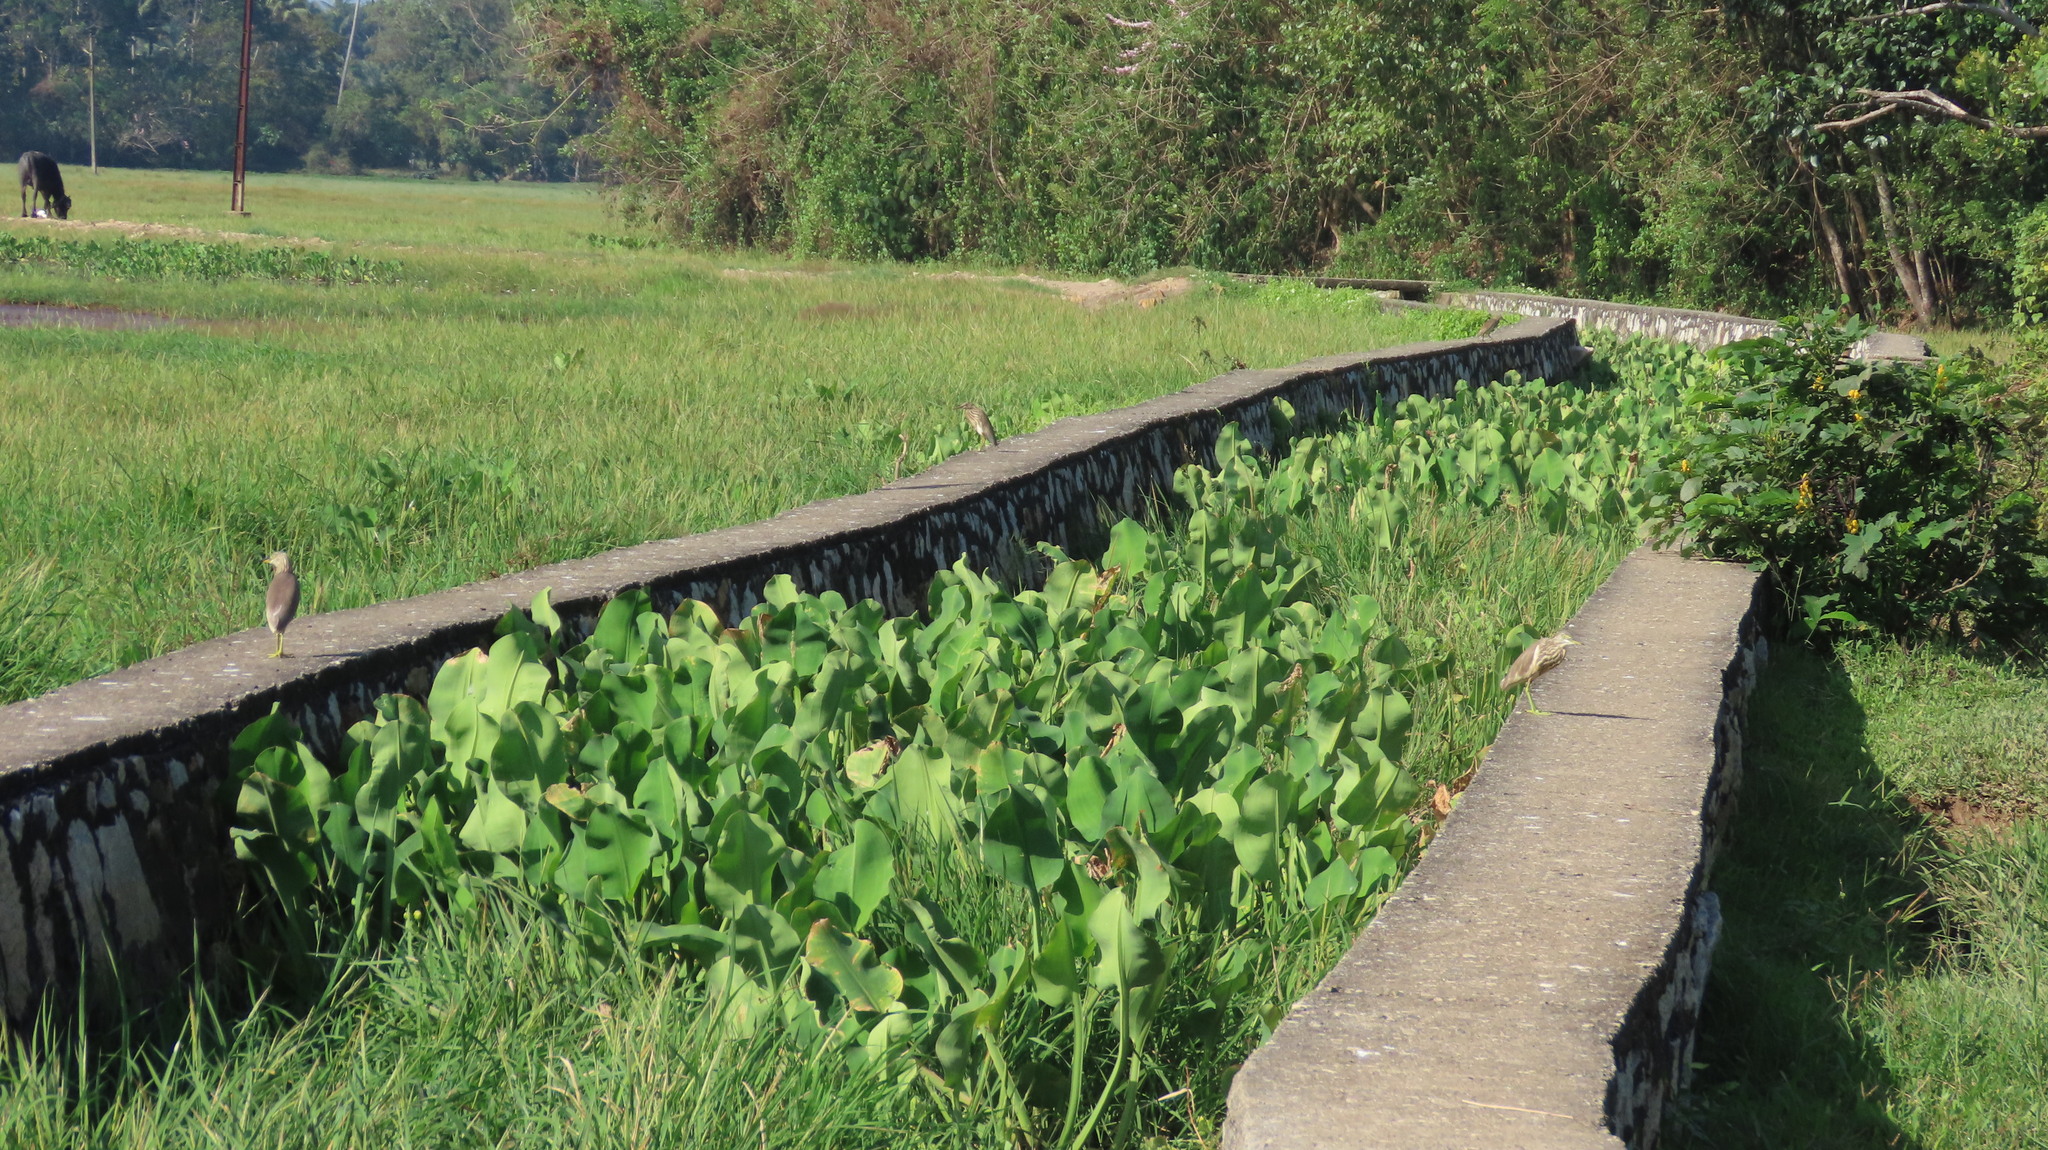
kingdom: Animalia
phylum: Chordata
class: Aves
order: Pelecaniformes
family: Ardeidae
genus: Ardeola
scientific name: Ardeola grayii
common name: Indian pond heron
